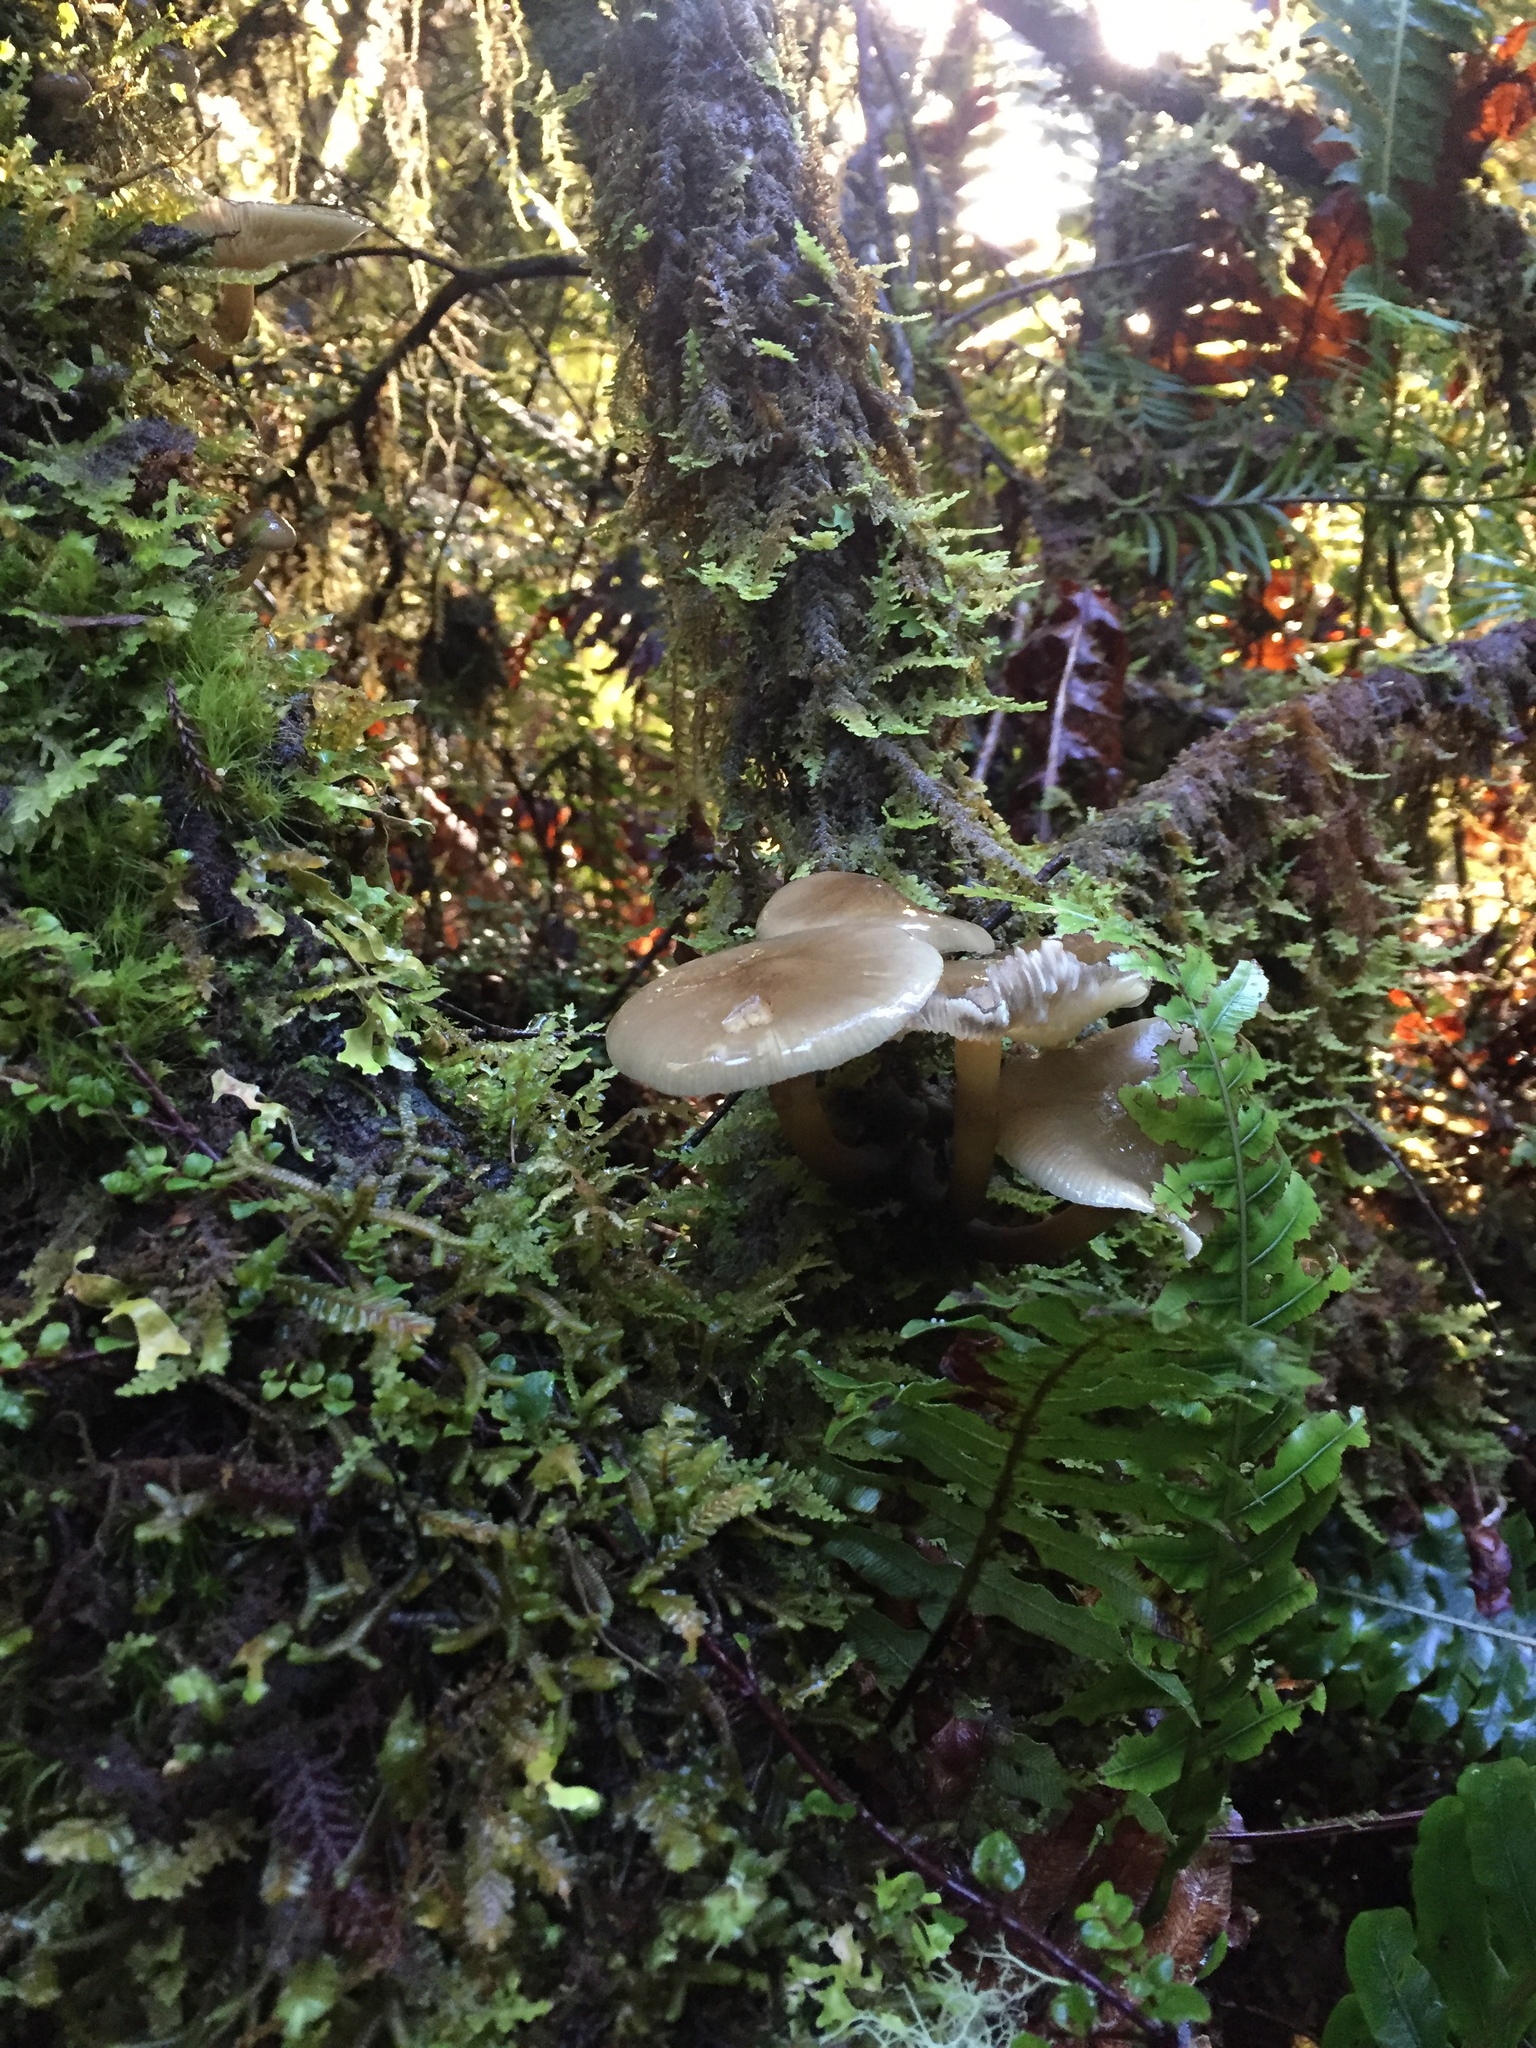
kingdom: Fungi
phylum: Basidiomycota
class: Agaricomycetes
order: Agaricales
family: Physalacriaceae
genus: Armillaria
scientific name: Armillaria novae-zelandiae
